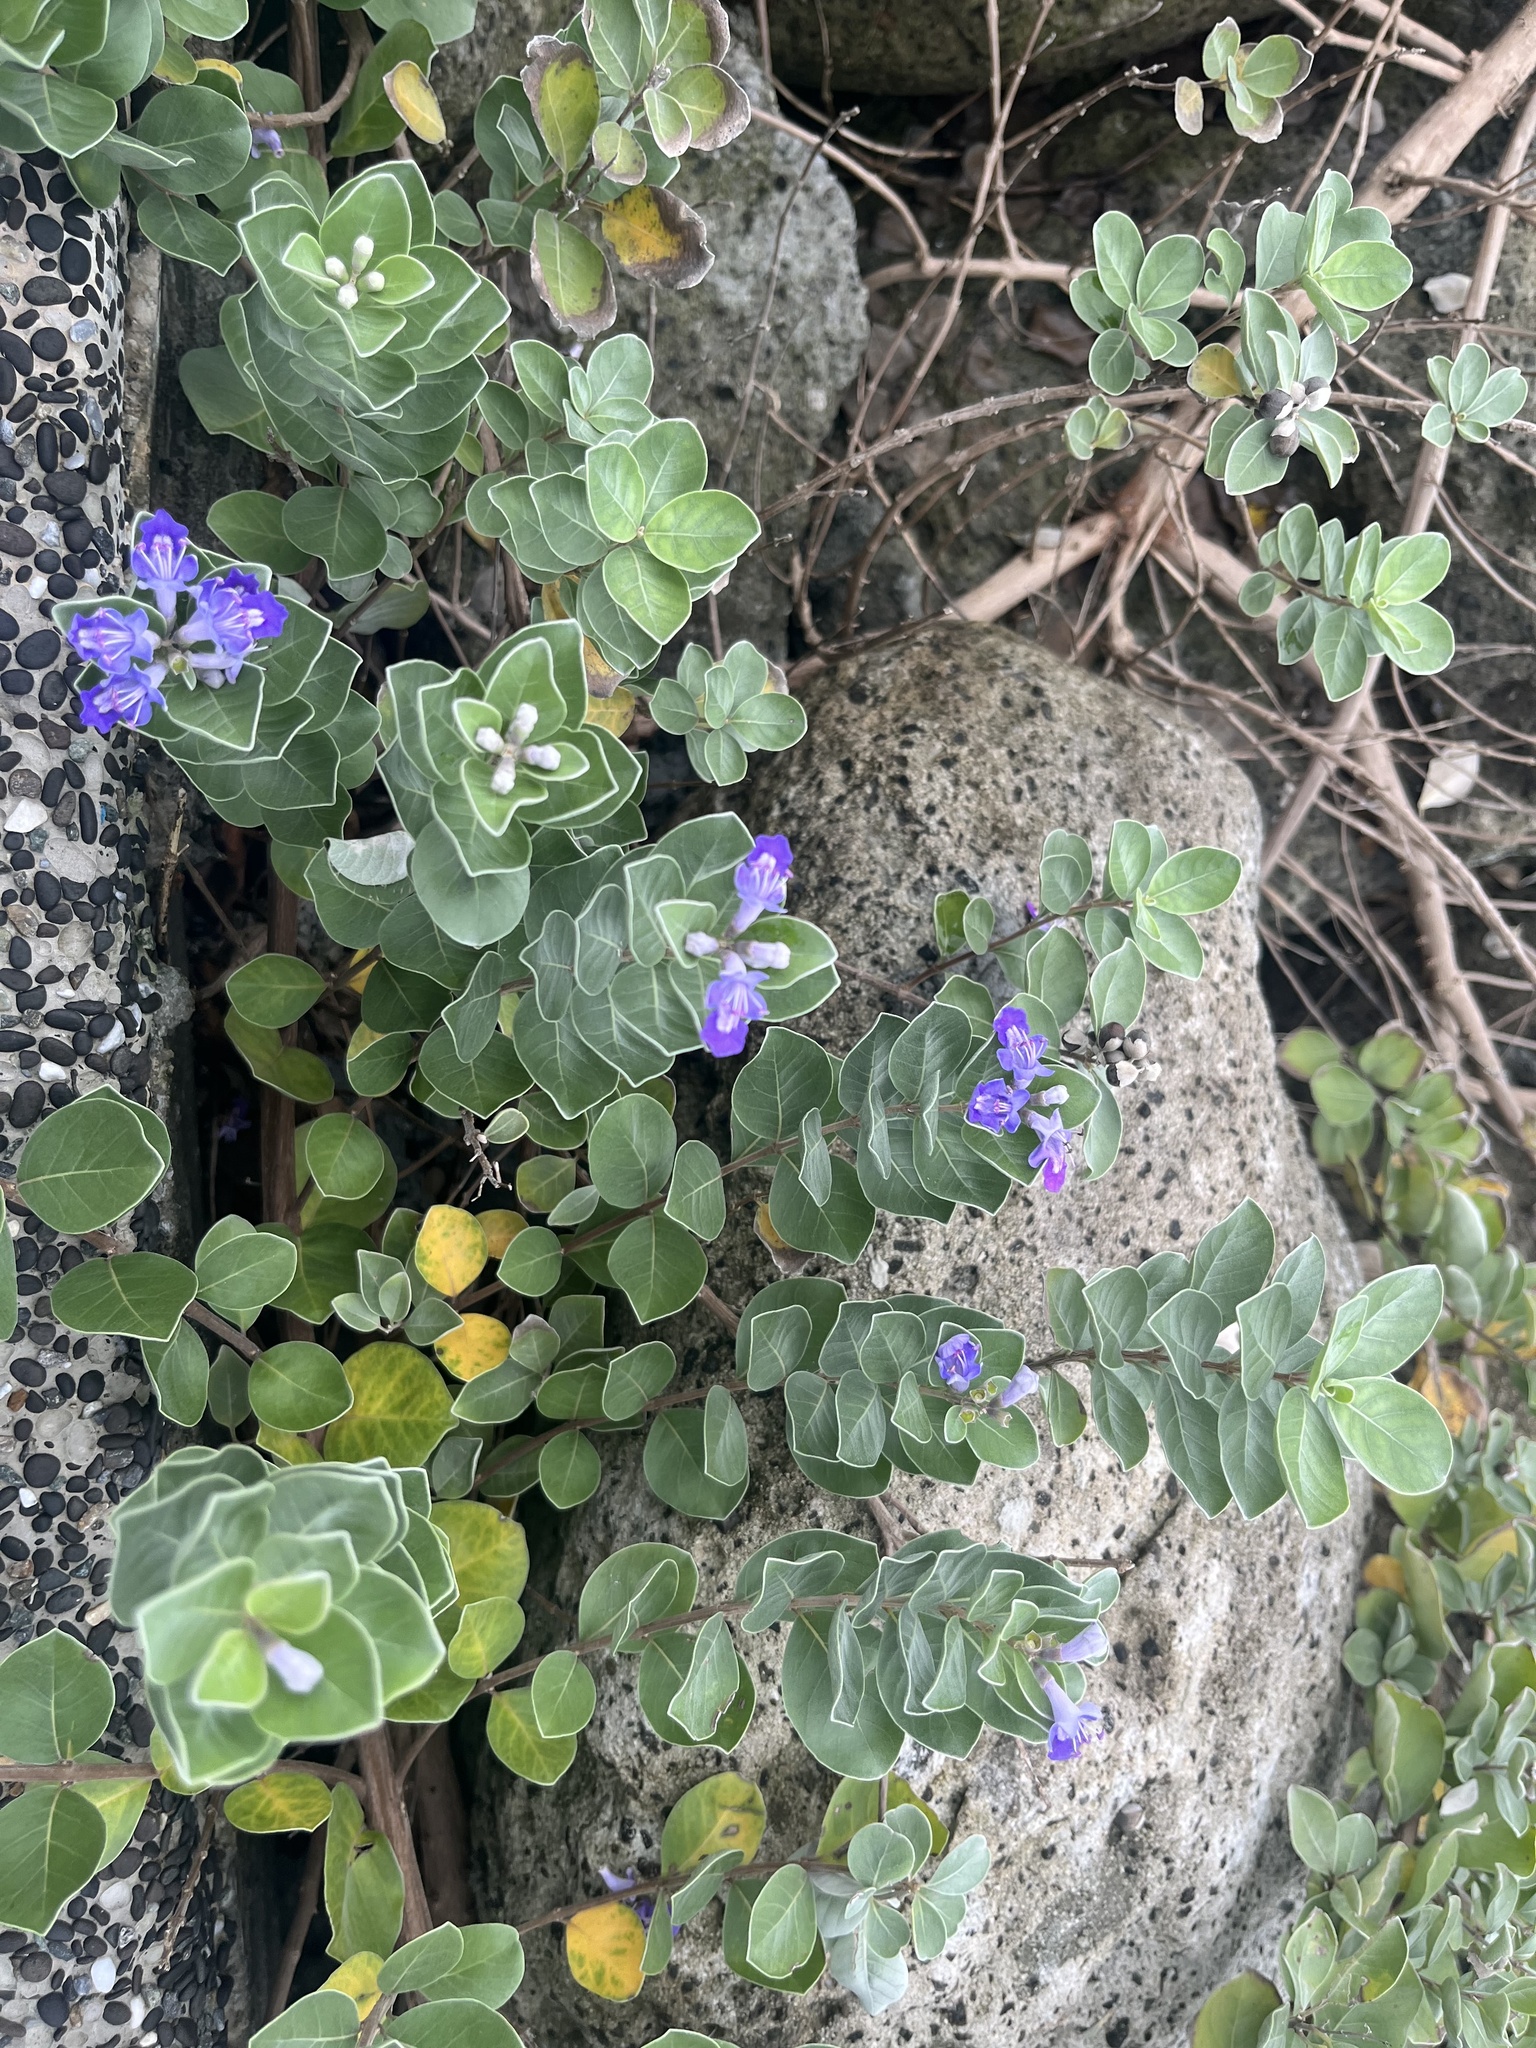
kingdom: Plantae
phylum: Tracheophyta
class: Magnoliopsida
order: Lamiales
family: Lamiaceae
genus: Vitex
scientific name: Vitex rotundifolia
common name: Beach vitex
